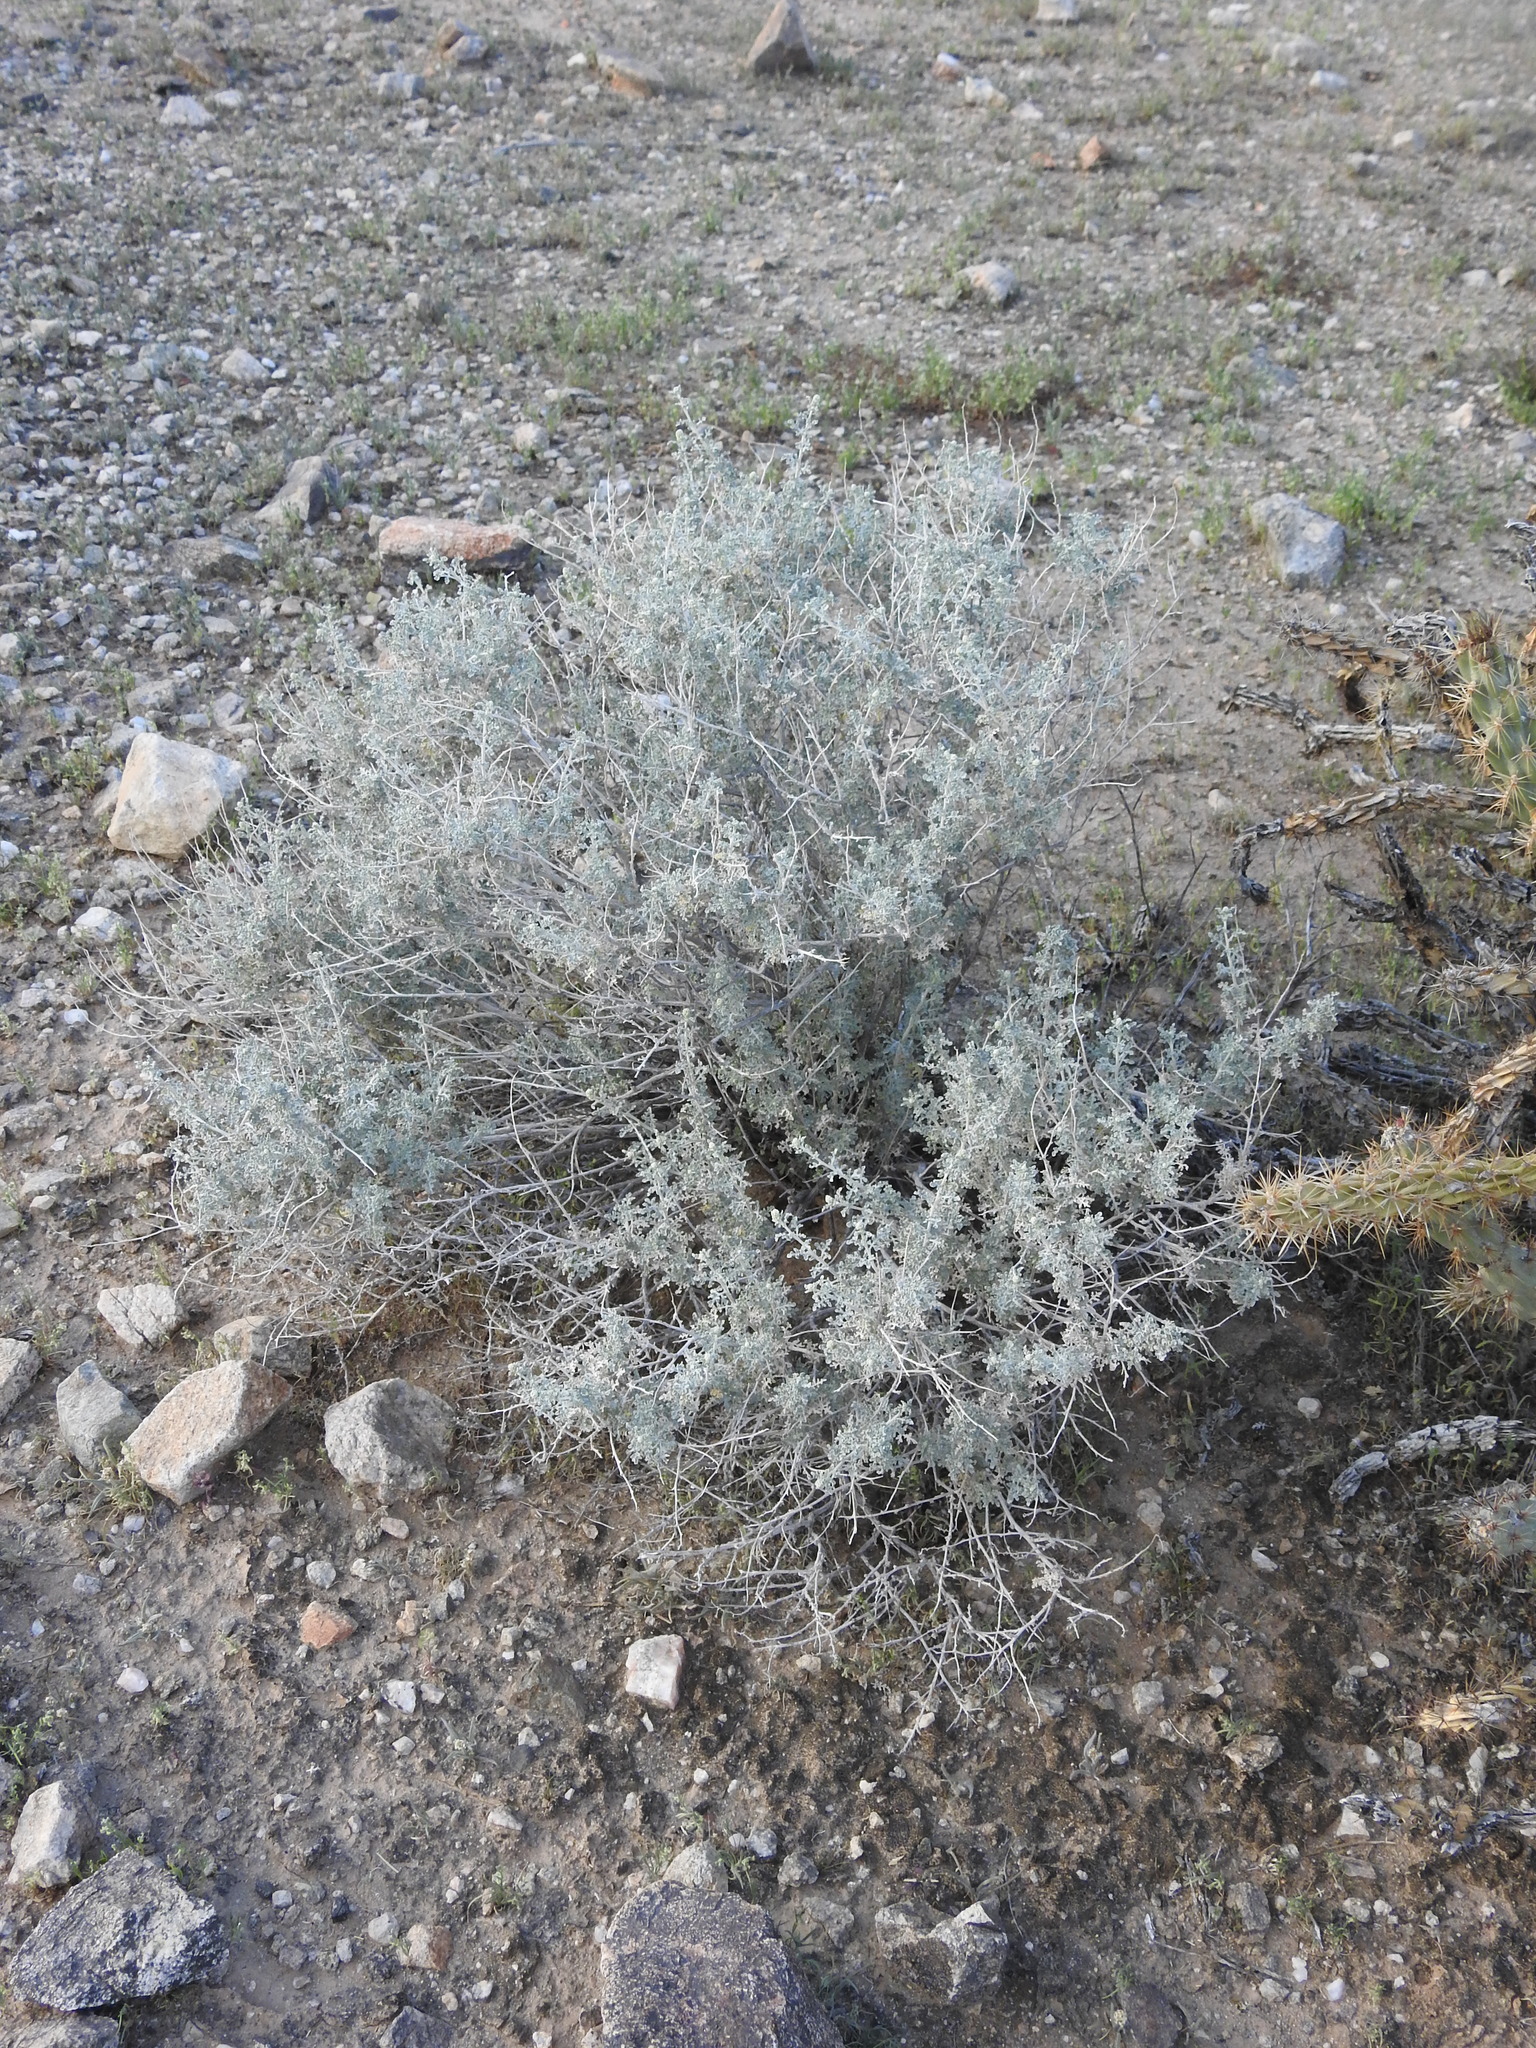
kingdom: Plantae
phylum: Tracheophyta
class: Magnoliopsida
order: Asterales
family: Asteraceae
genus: Ambrosia
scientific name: Ambrosia dumosa
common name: Bur-sage
